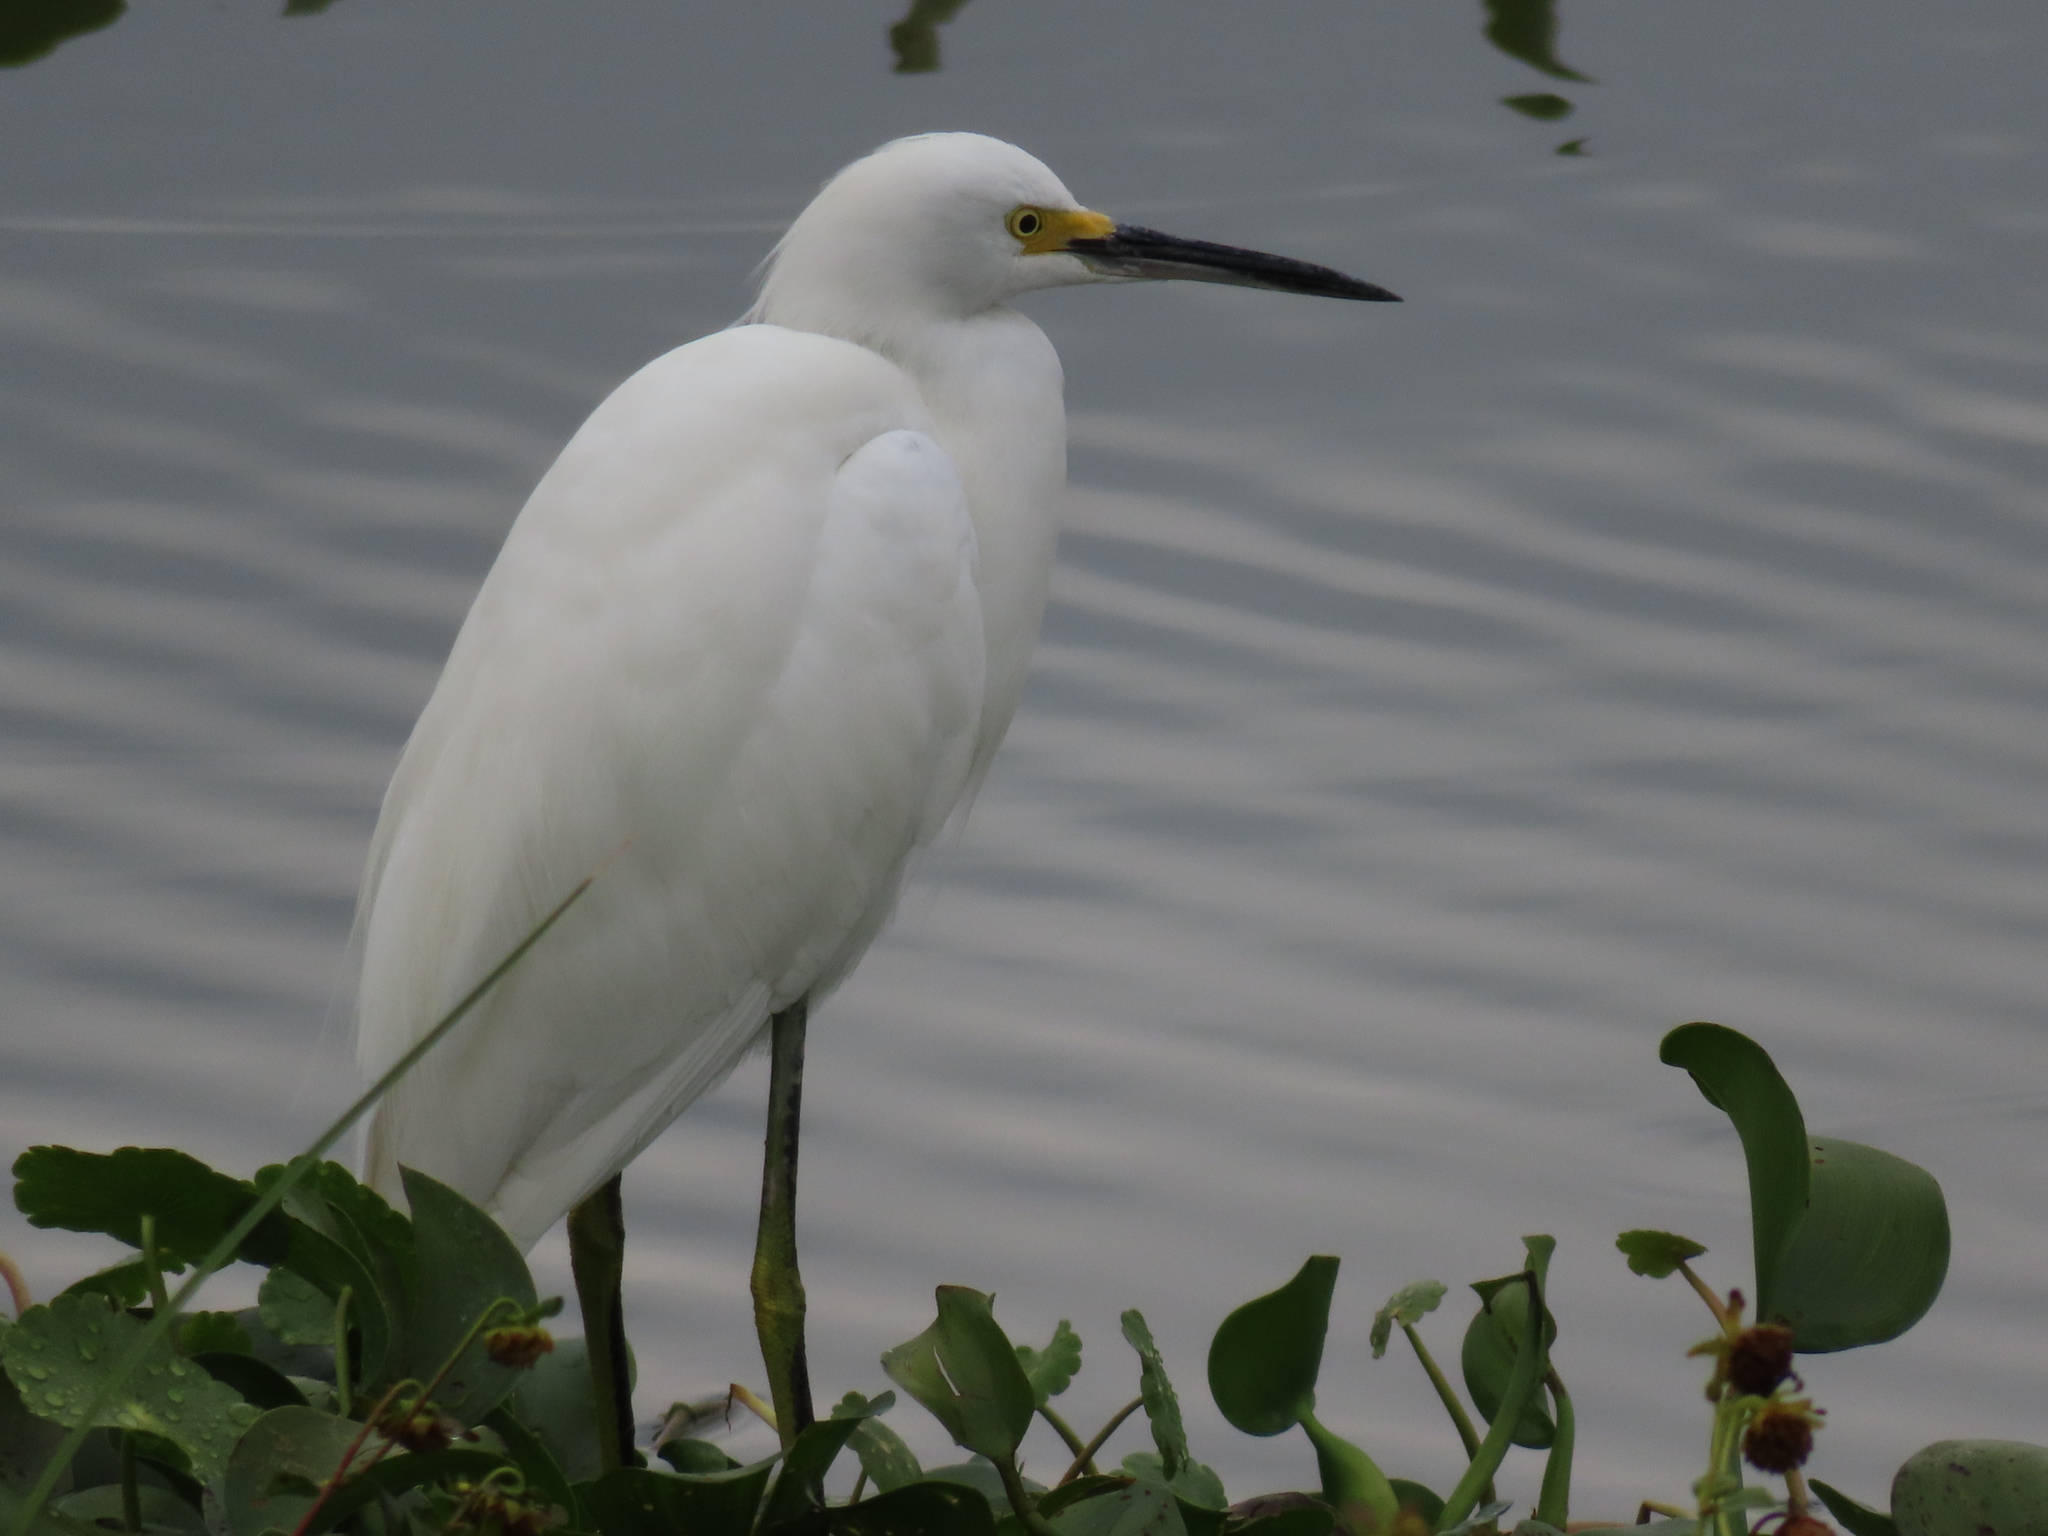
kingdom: Animalia
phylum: Chordata
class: Aves
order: Pelecaniformes
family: Ardeidae
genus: Egretta
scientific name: Egretta thula
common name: Snowy egret
